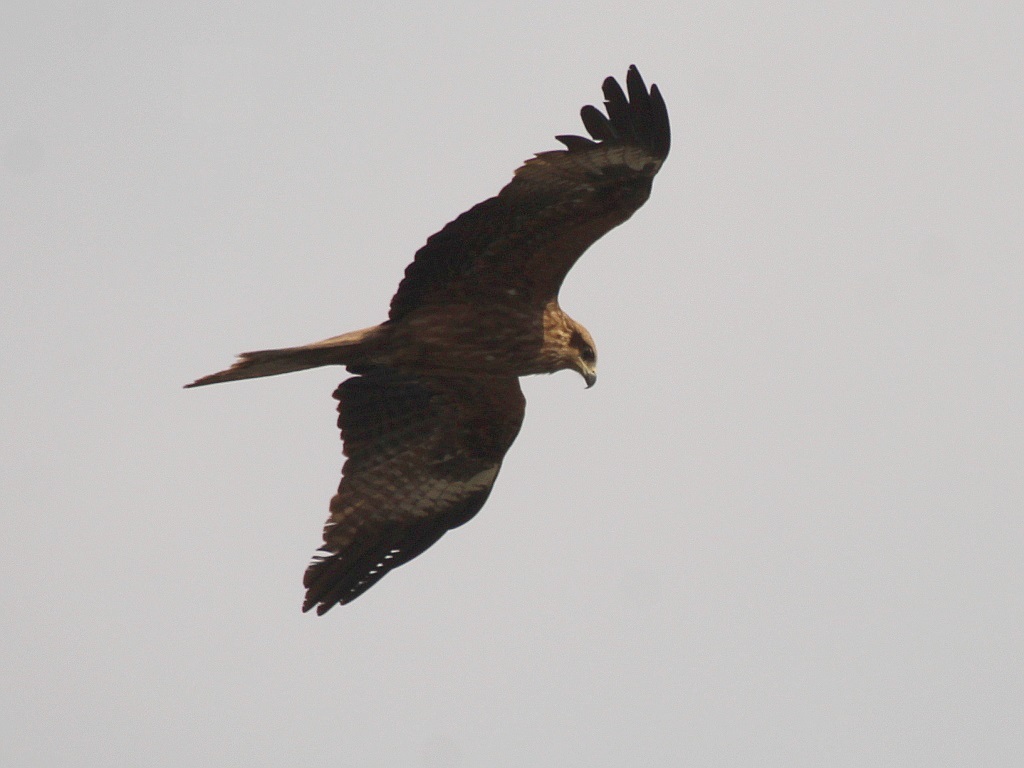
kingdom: Animalia
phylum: Chordata
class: Aves
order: Accipitriformes
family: Accipitridae
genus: Milvus
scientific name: Milvus migrans
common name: Black kite
